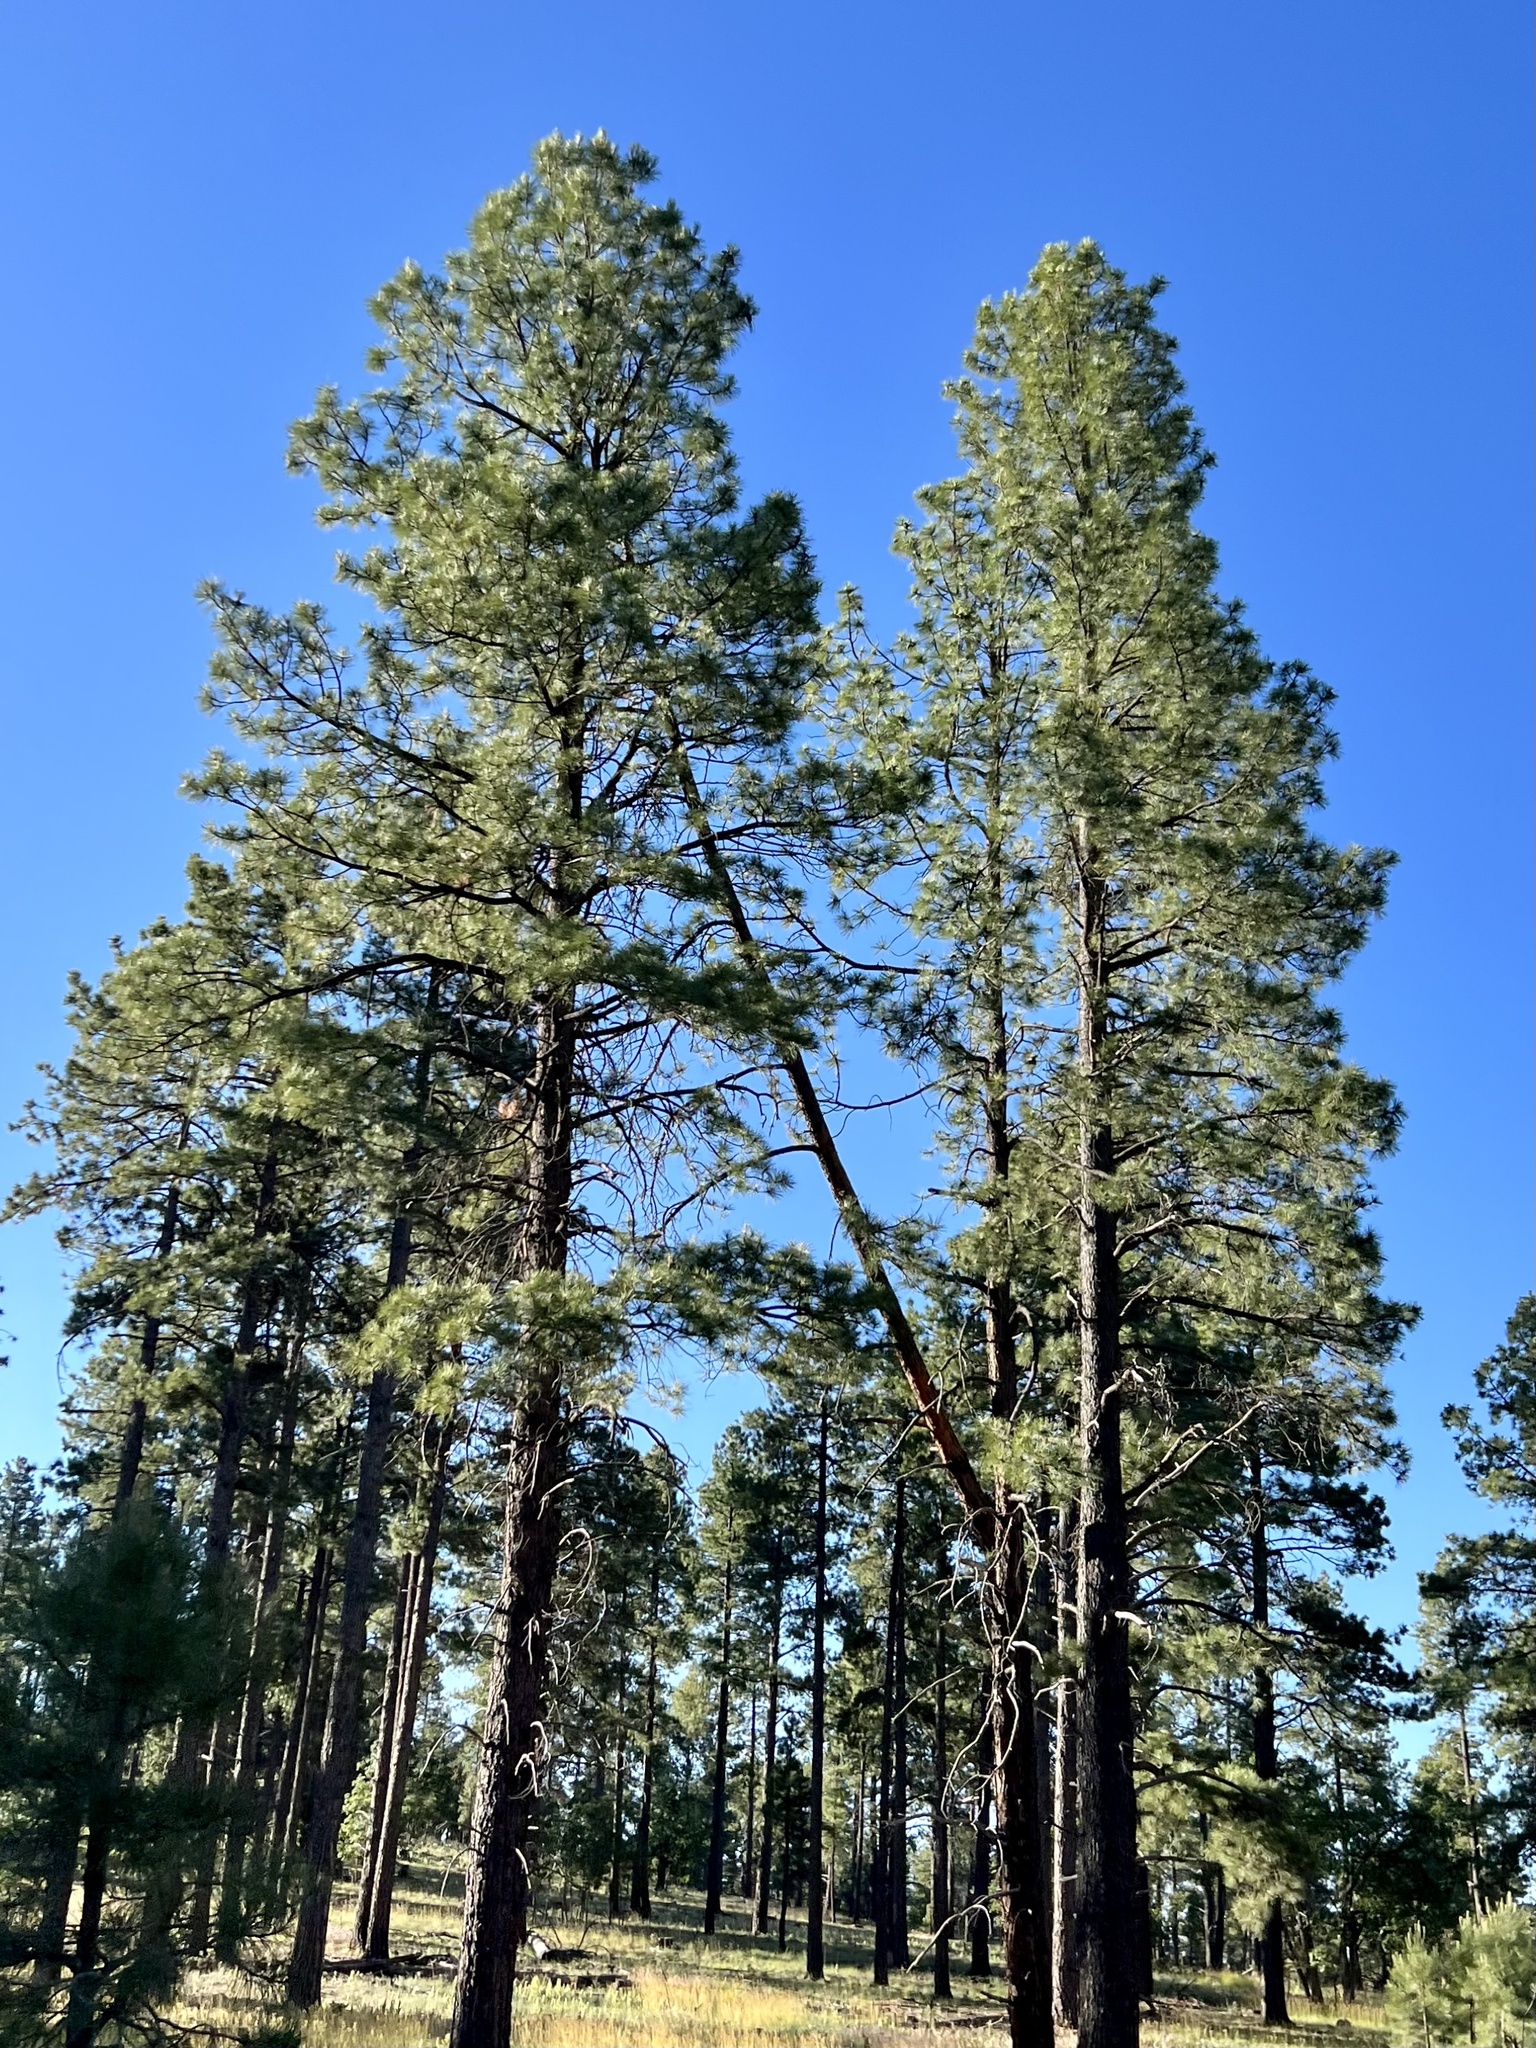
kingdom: Plantae
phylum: Tracheophyta
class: Pinopsida
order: Pinales
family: Pinaceae
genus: Pinus
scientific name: Pinus ponderosa
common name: Western yellow-pine
